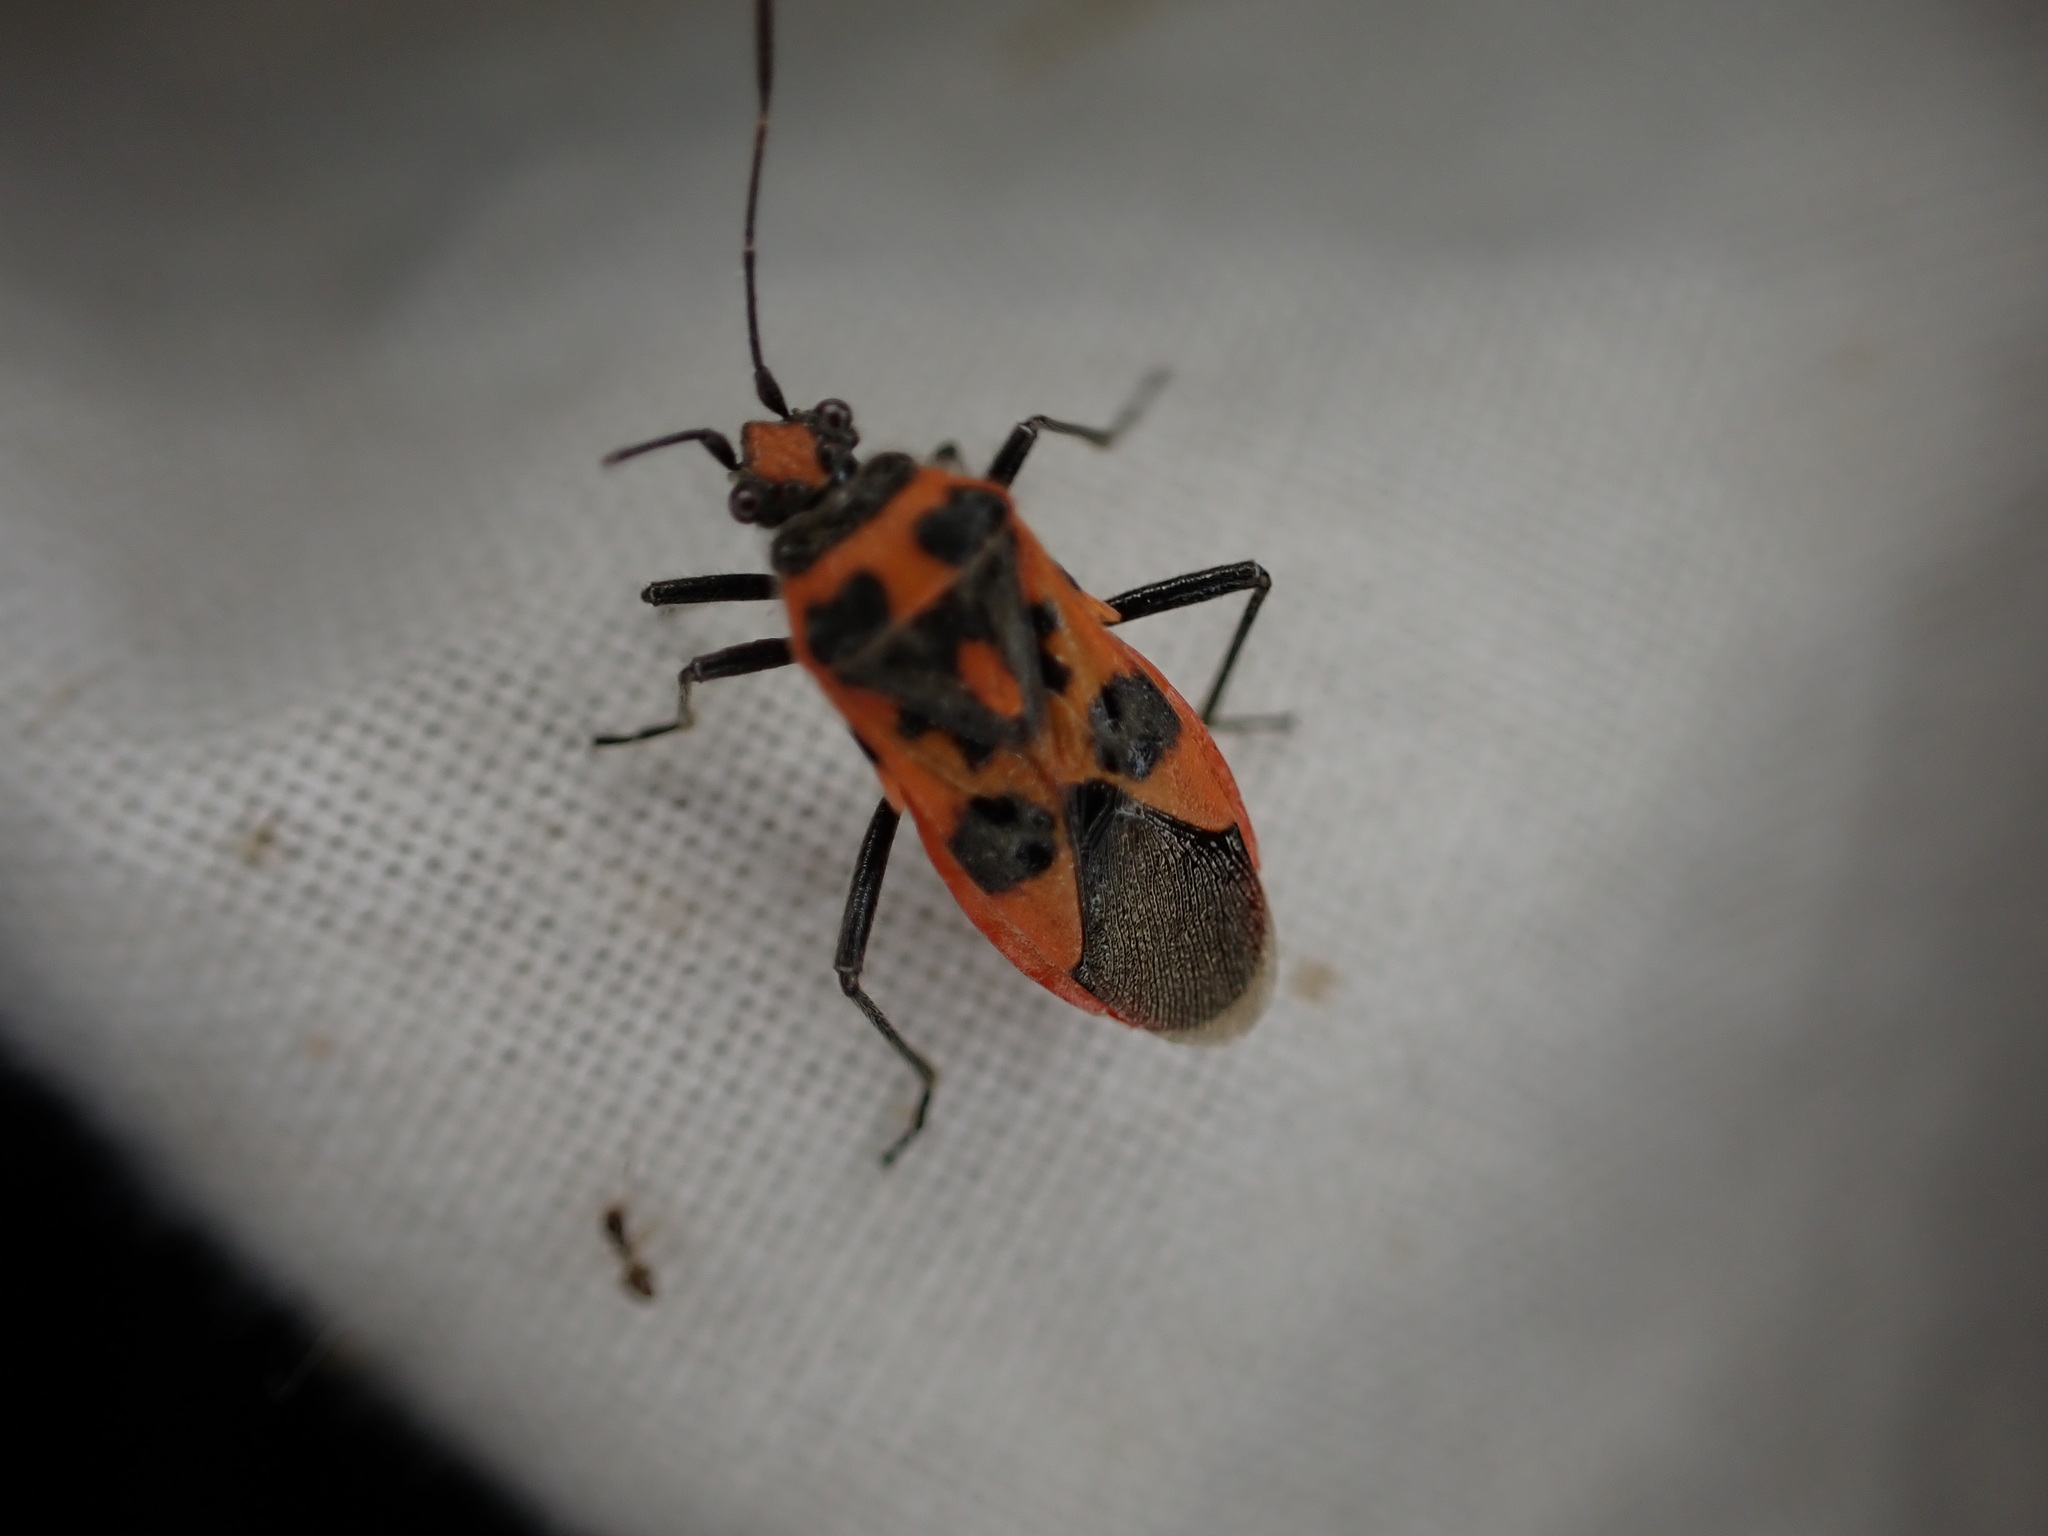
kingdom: Animalia
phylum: Arthropoda
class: Insecta
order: Hemiptera
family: Rhopalidae
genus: Corizus
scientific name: Corizus hyoscyami
